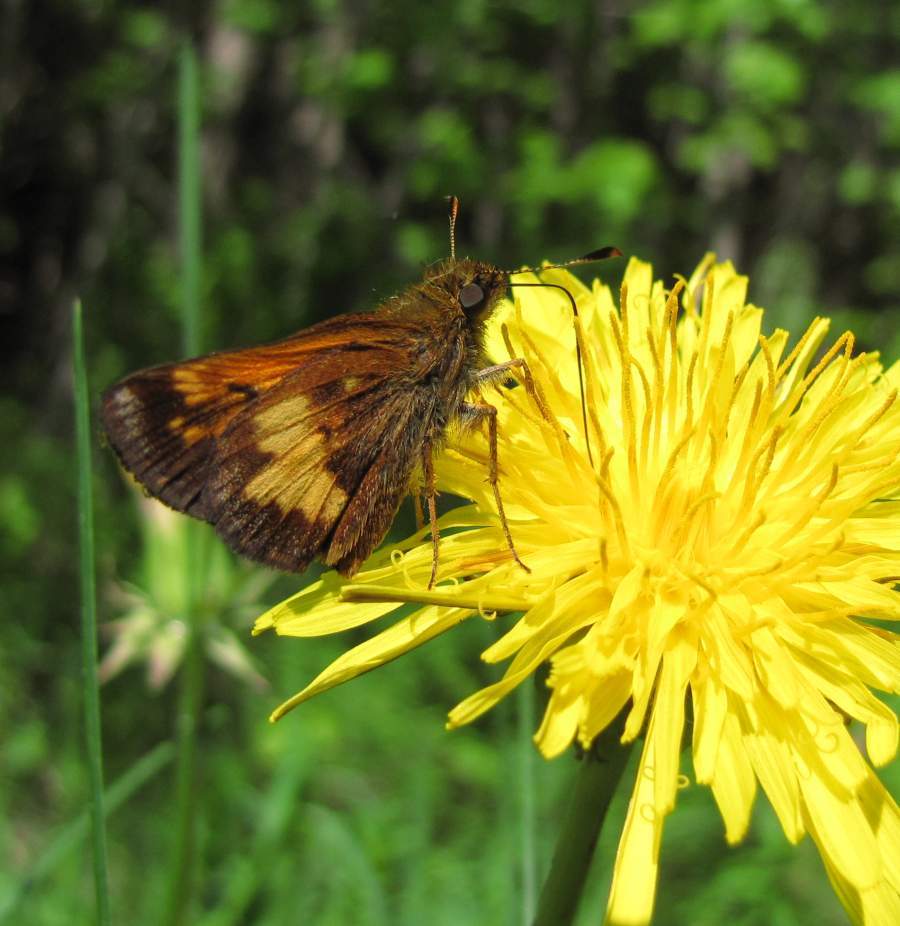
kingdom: Animalia
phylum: Arthropoda
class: Insecta
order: Lepidoptera
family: Hesperiidae
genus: Lon
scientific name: Lon hobomok
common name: Hobomok skipper
